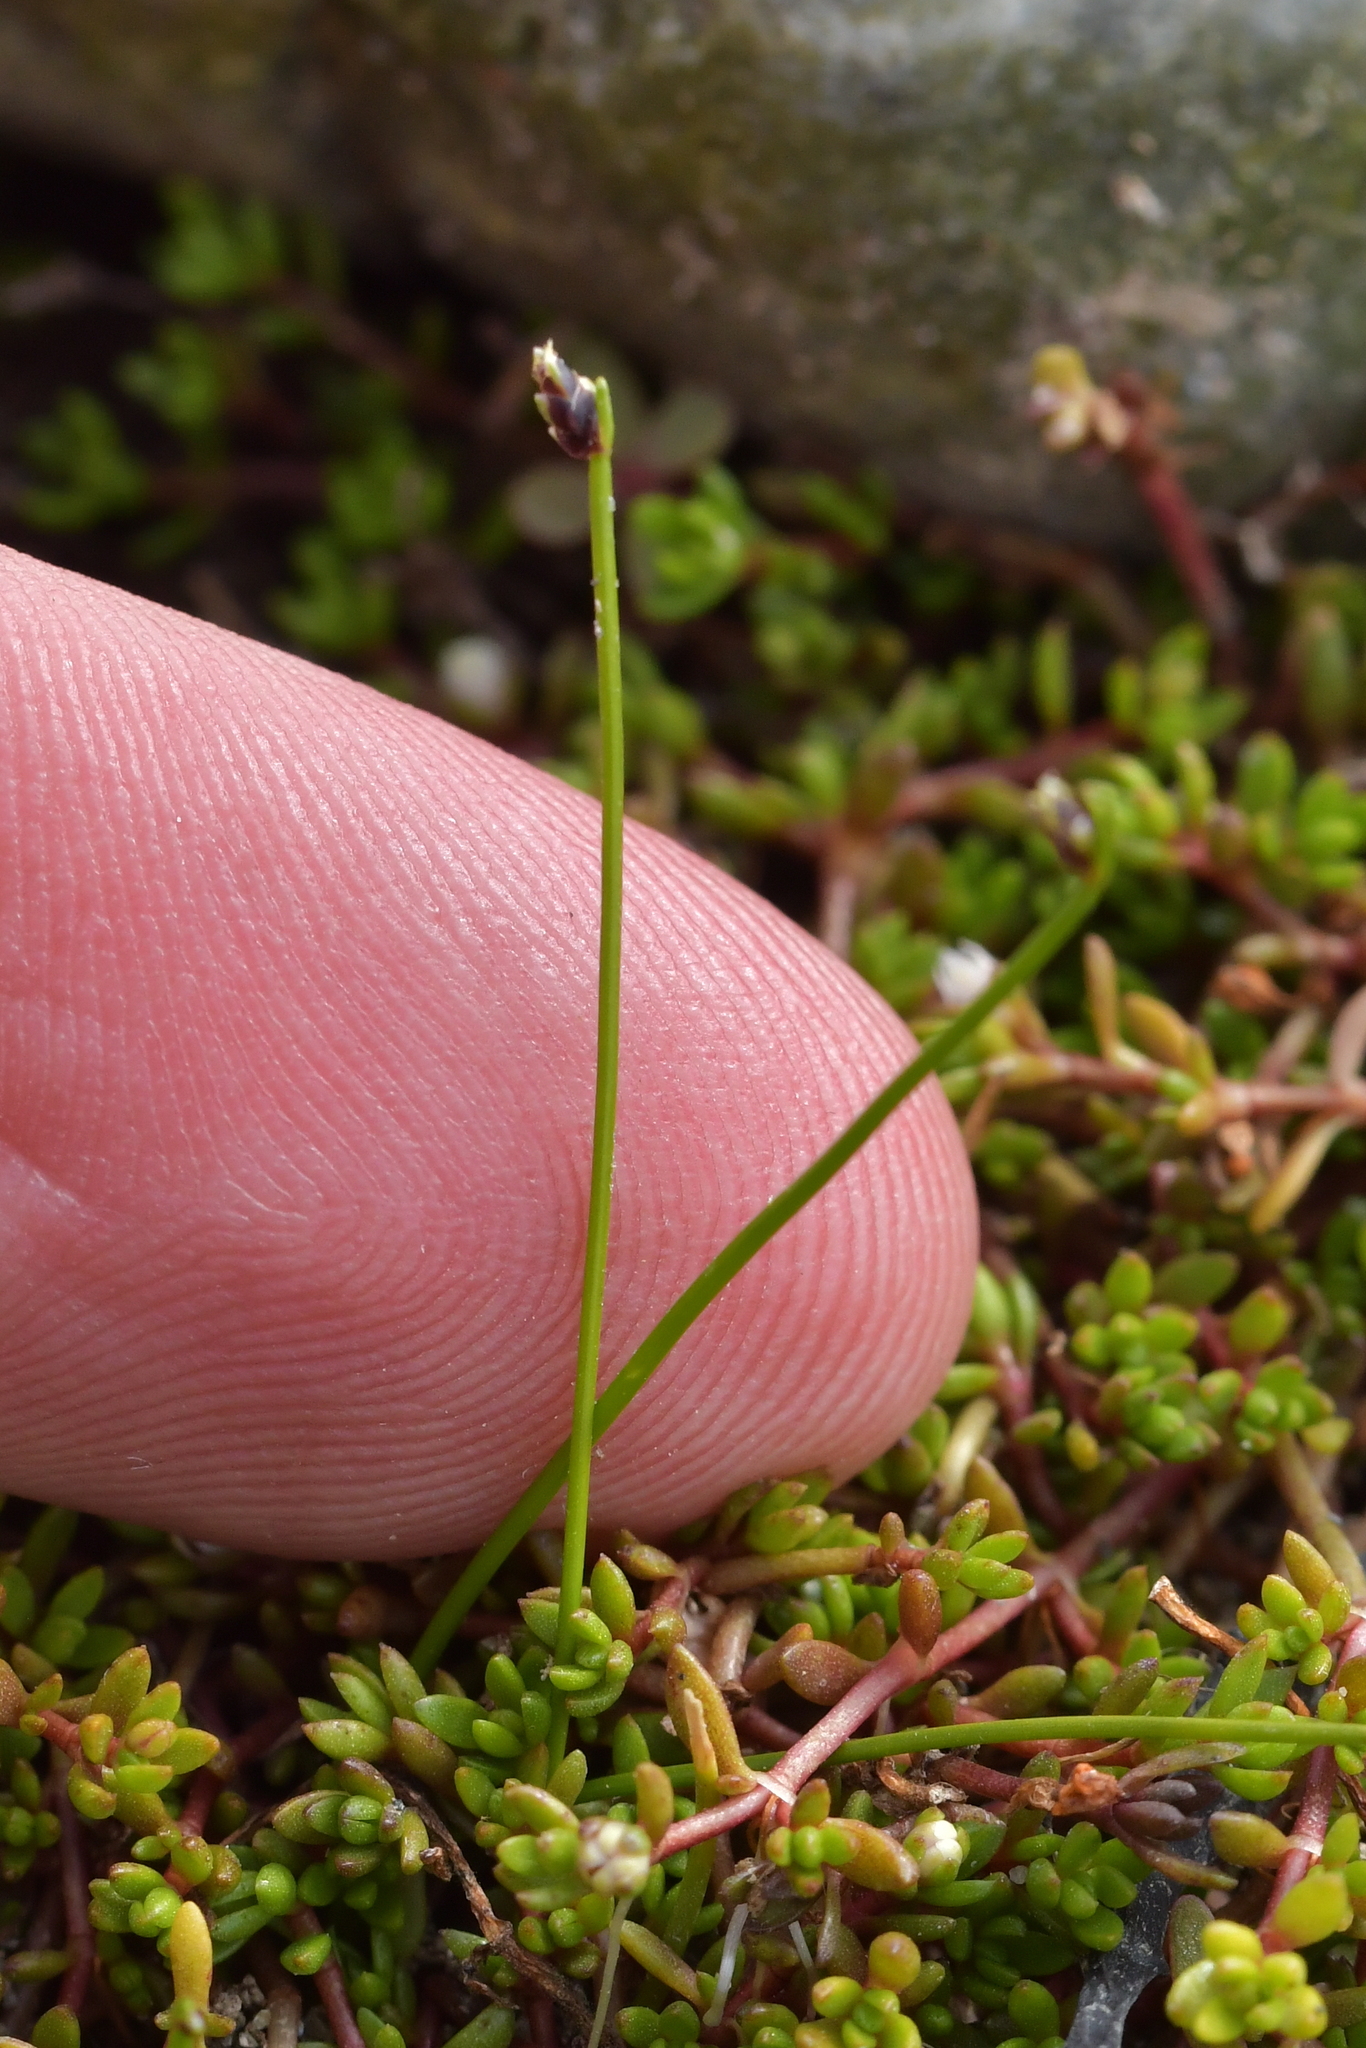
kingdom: Plantae
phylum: Tracheophyta
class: Liliopsida
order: Poales
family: Cyperaceae
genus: Isolepis
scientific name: Isolepis cernua
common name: Slender club-rush
